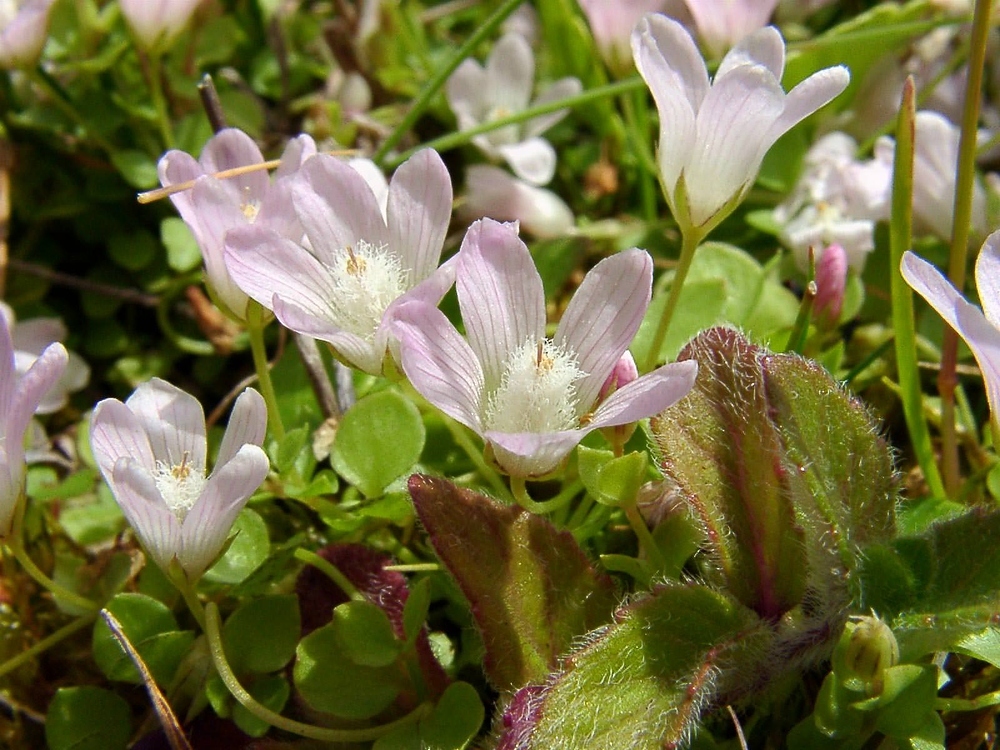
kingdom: Plantae
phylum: Tracheophyta
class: Magnoliopsida
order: Ericales
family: Primulaceae
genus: Lysimachia
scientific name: Lysimachia tenella
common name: European bog pimpernel
